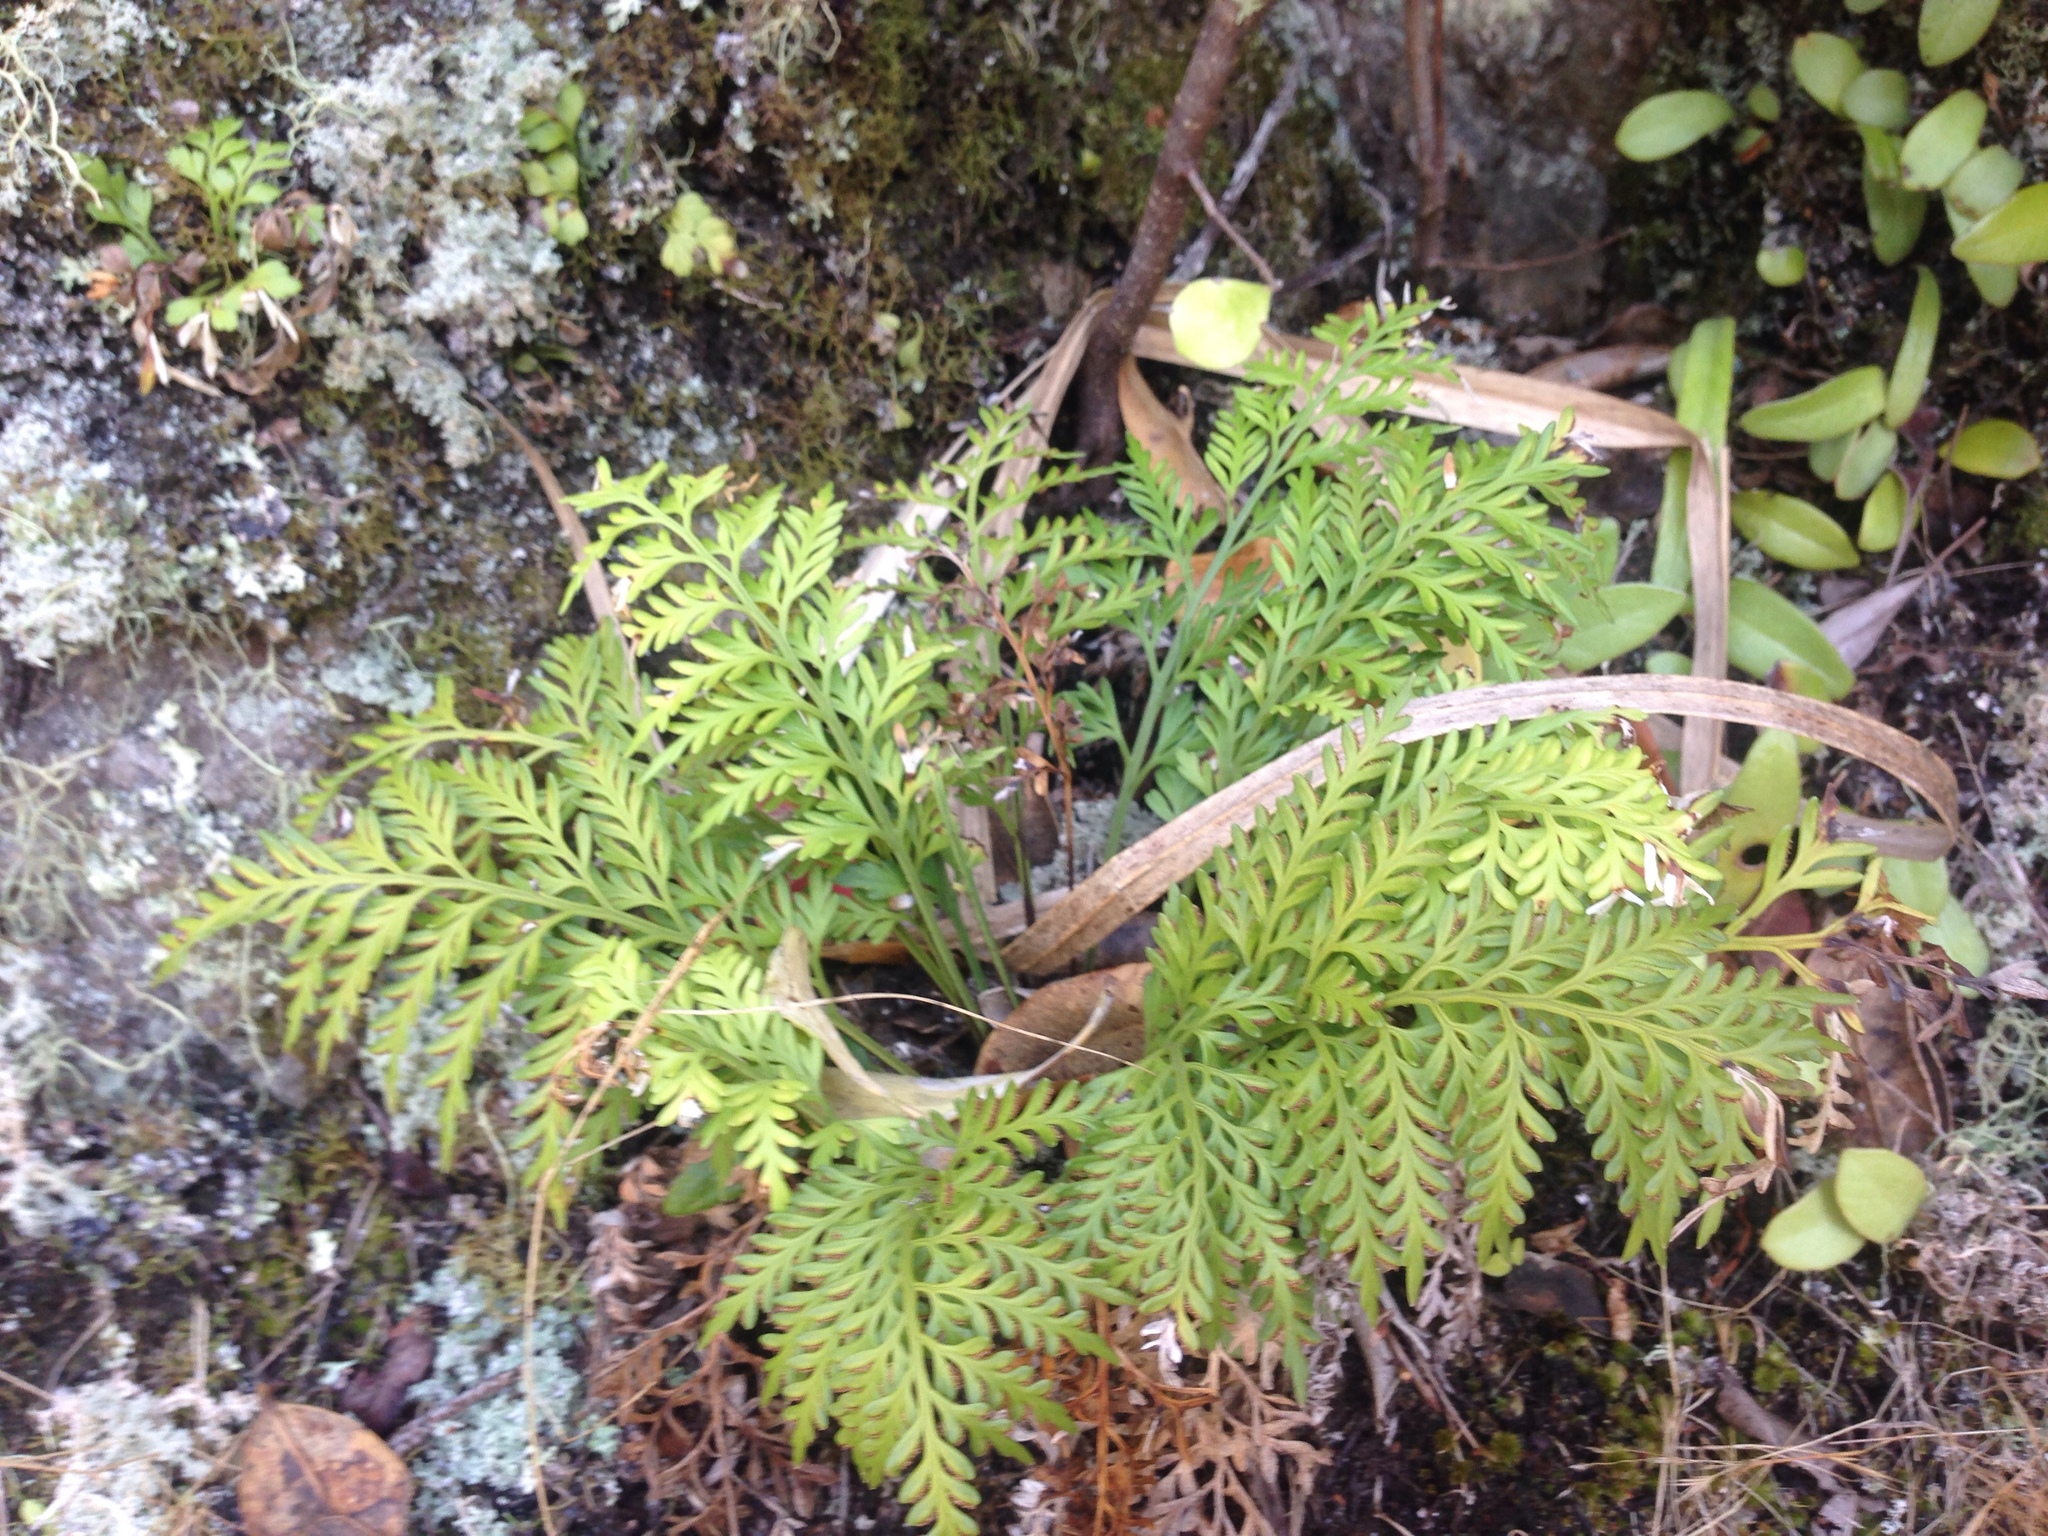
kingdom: Plantae
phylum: Tracheophyta
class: Polypodiopsida
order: Polypodiales
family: Aspleniaceae
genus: Asplenium
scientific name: Asplenium haurakiense
